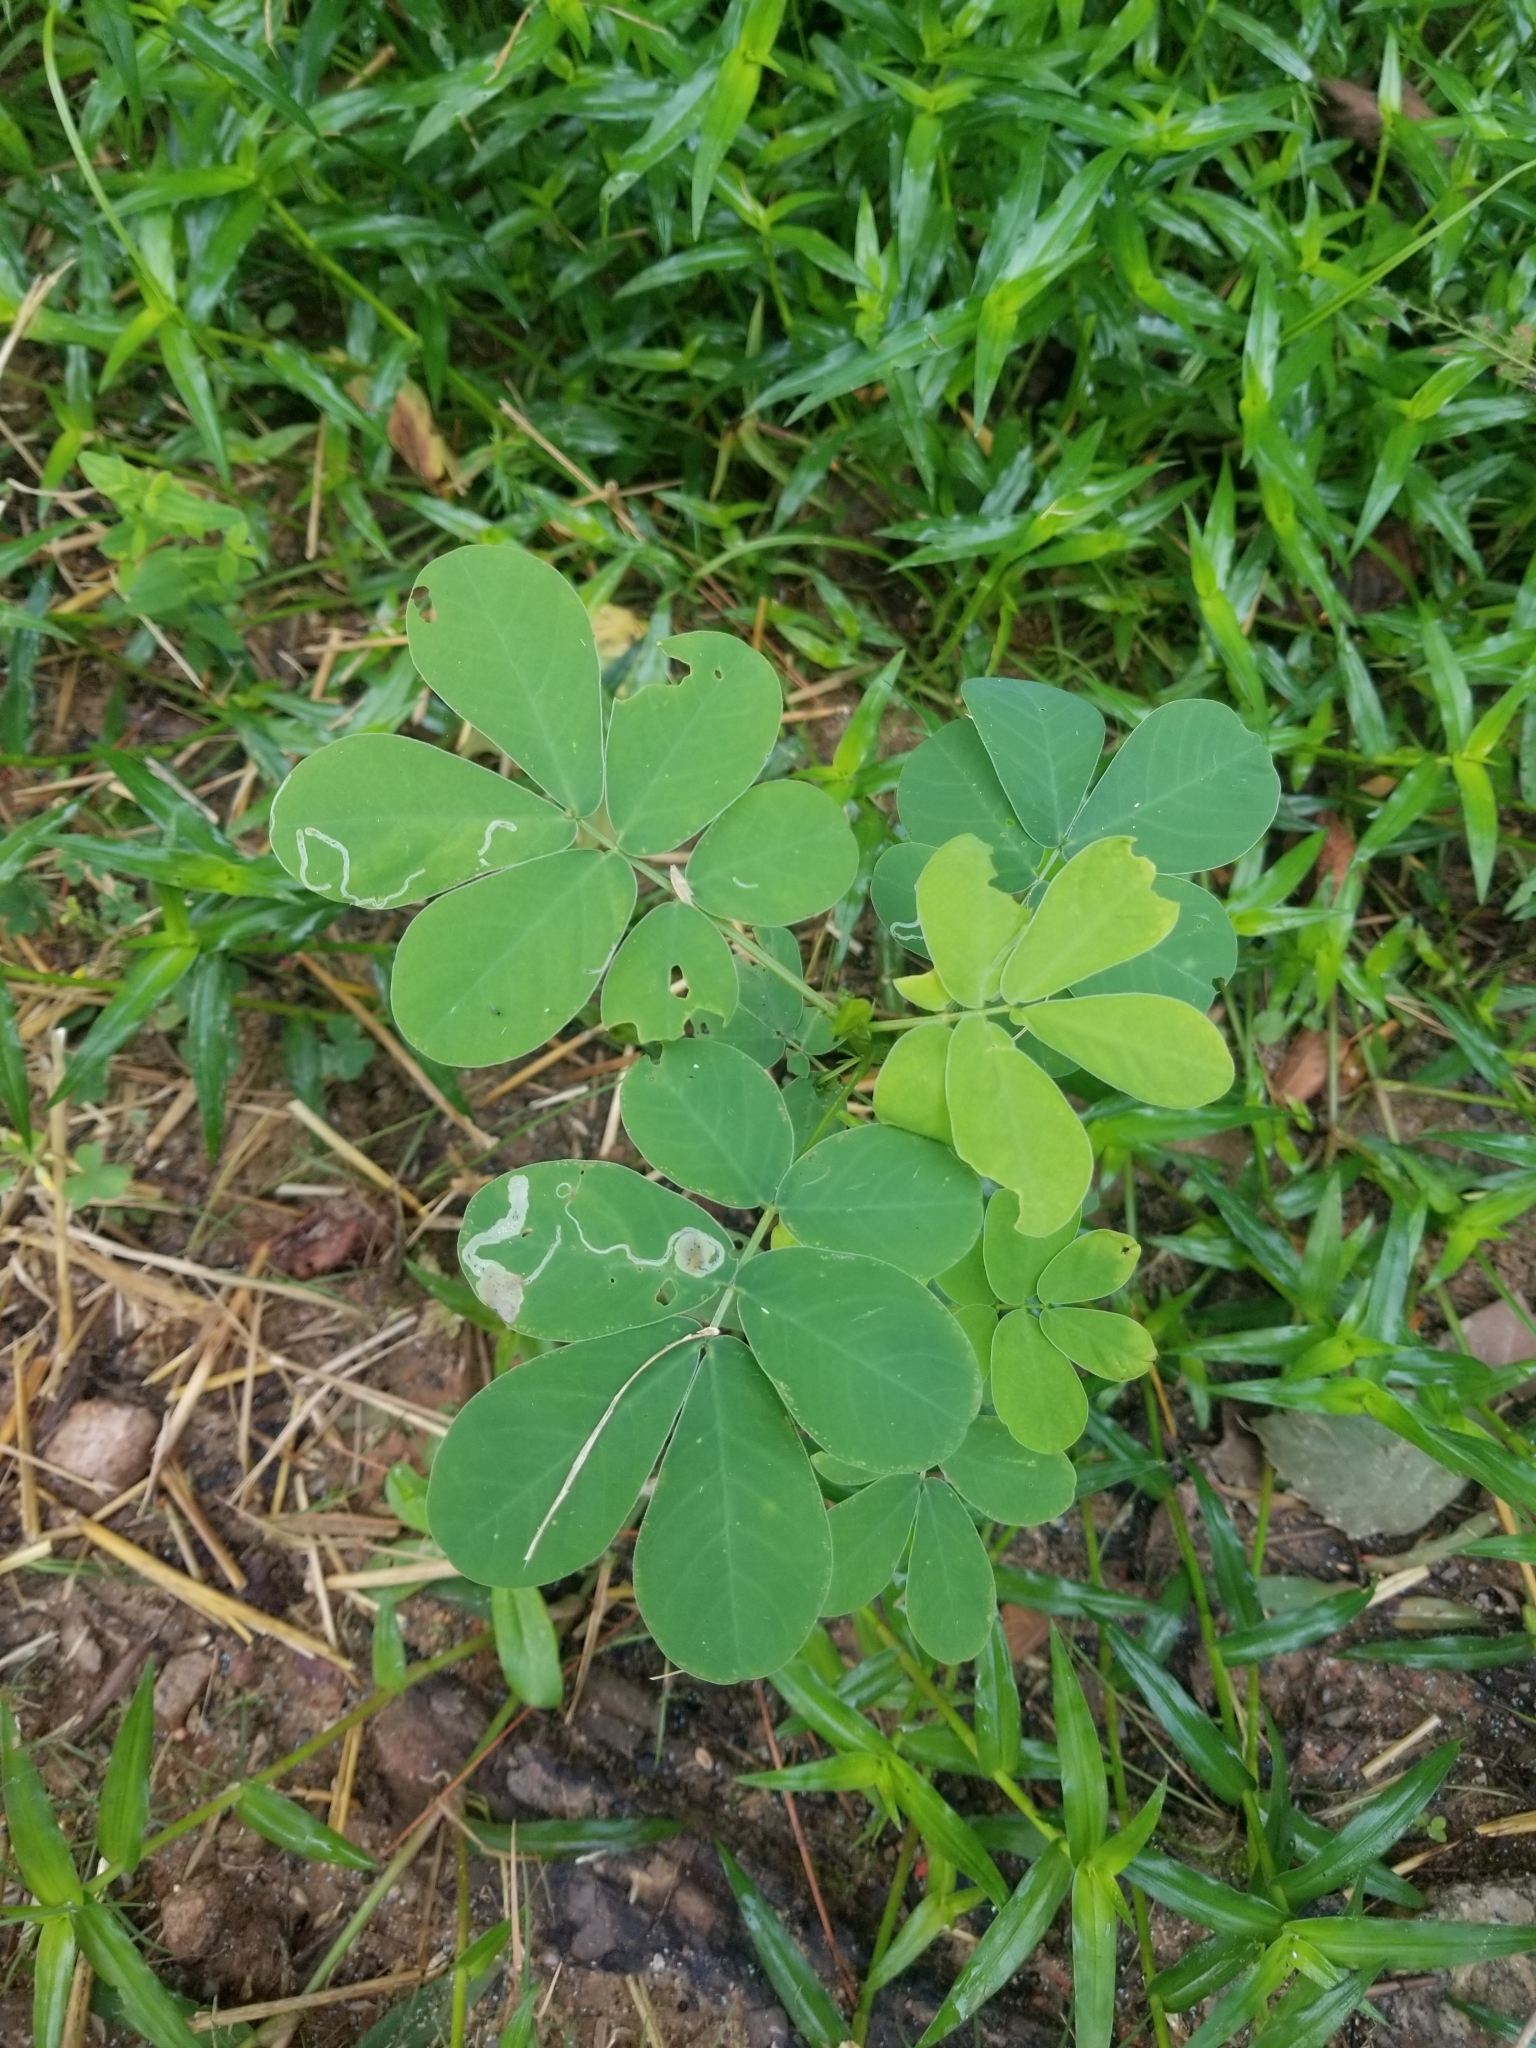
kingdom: Plantae
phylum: Tracheophyta
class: Magnoliopsida
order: Fabales
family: Fabaceae
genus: Senna
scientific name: Senna obtusifolia
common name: Java-bean
